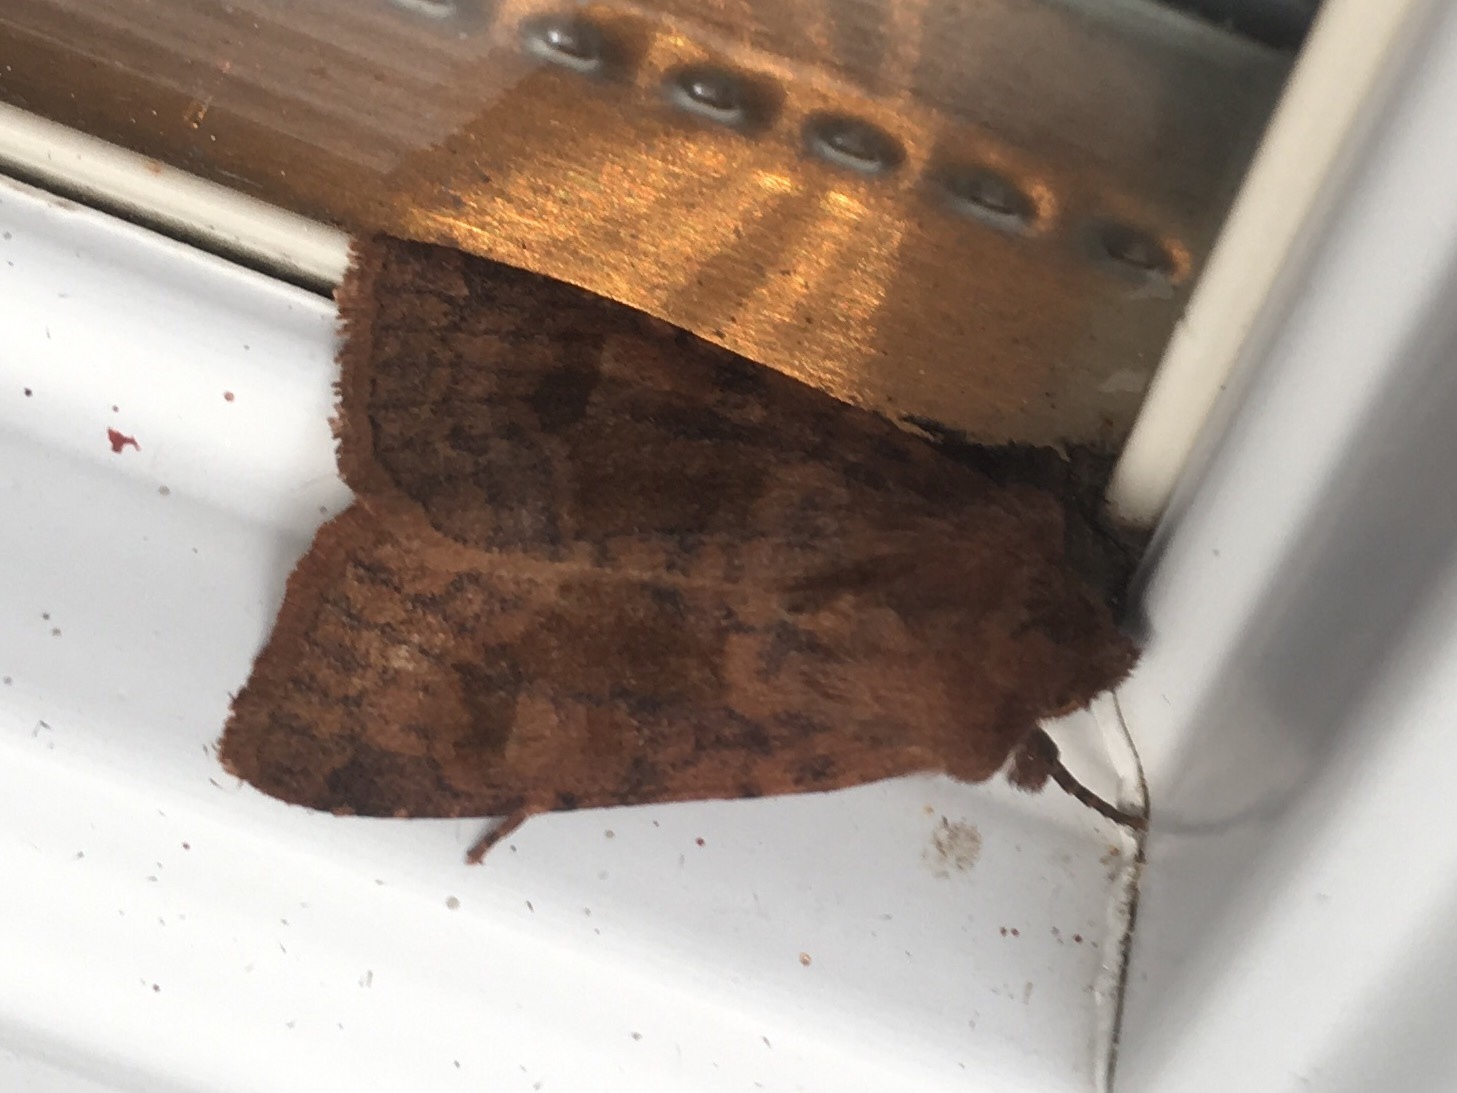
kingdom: Animalia
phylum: Arthropoda
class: Insecta
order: Lepidoptera
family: Noctuidae
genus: Nephelodes
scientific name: Nephelodes minians
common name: Bronzed cutworm
